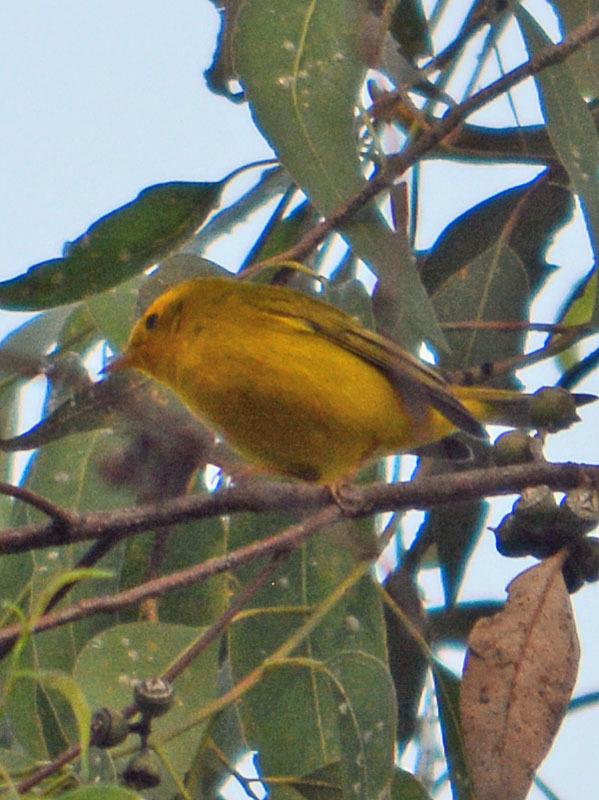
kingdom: Animalia
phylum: Chordata
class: Aves
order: Passeriformes
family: Parulidae
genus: Cardellina
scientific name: Cardellina pusilla
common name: Wilson's warbler
